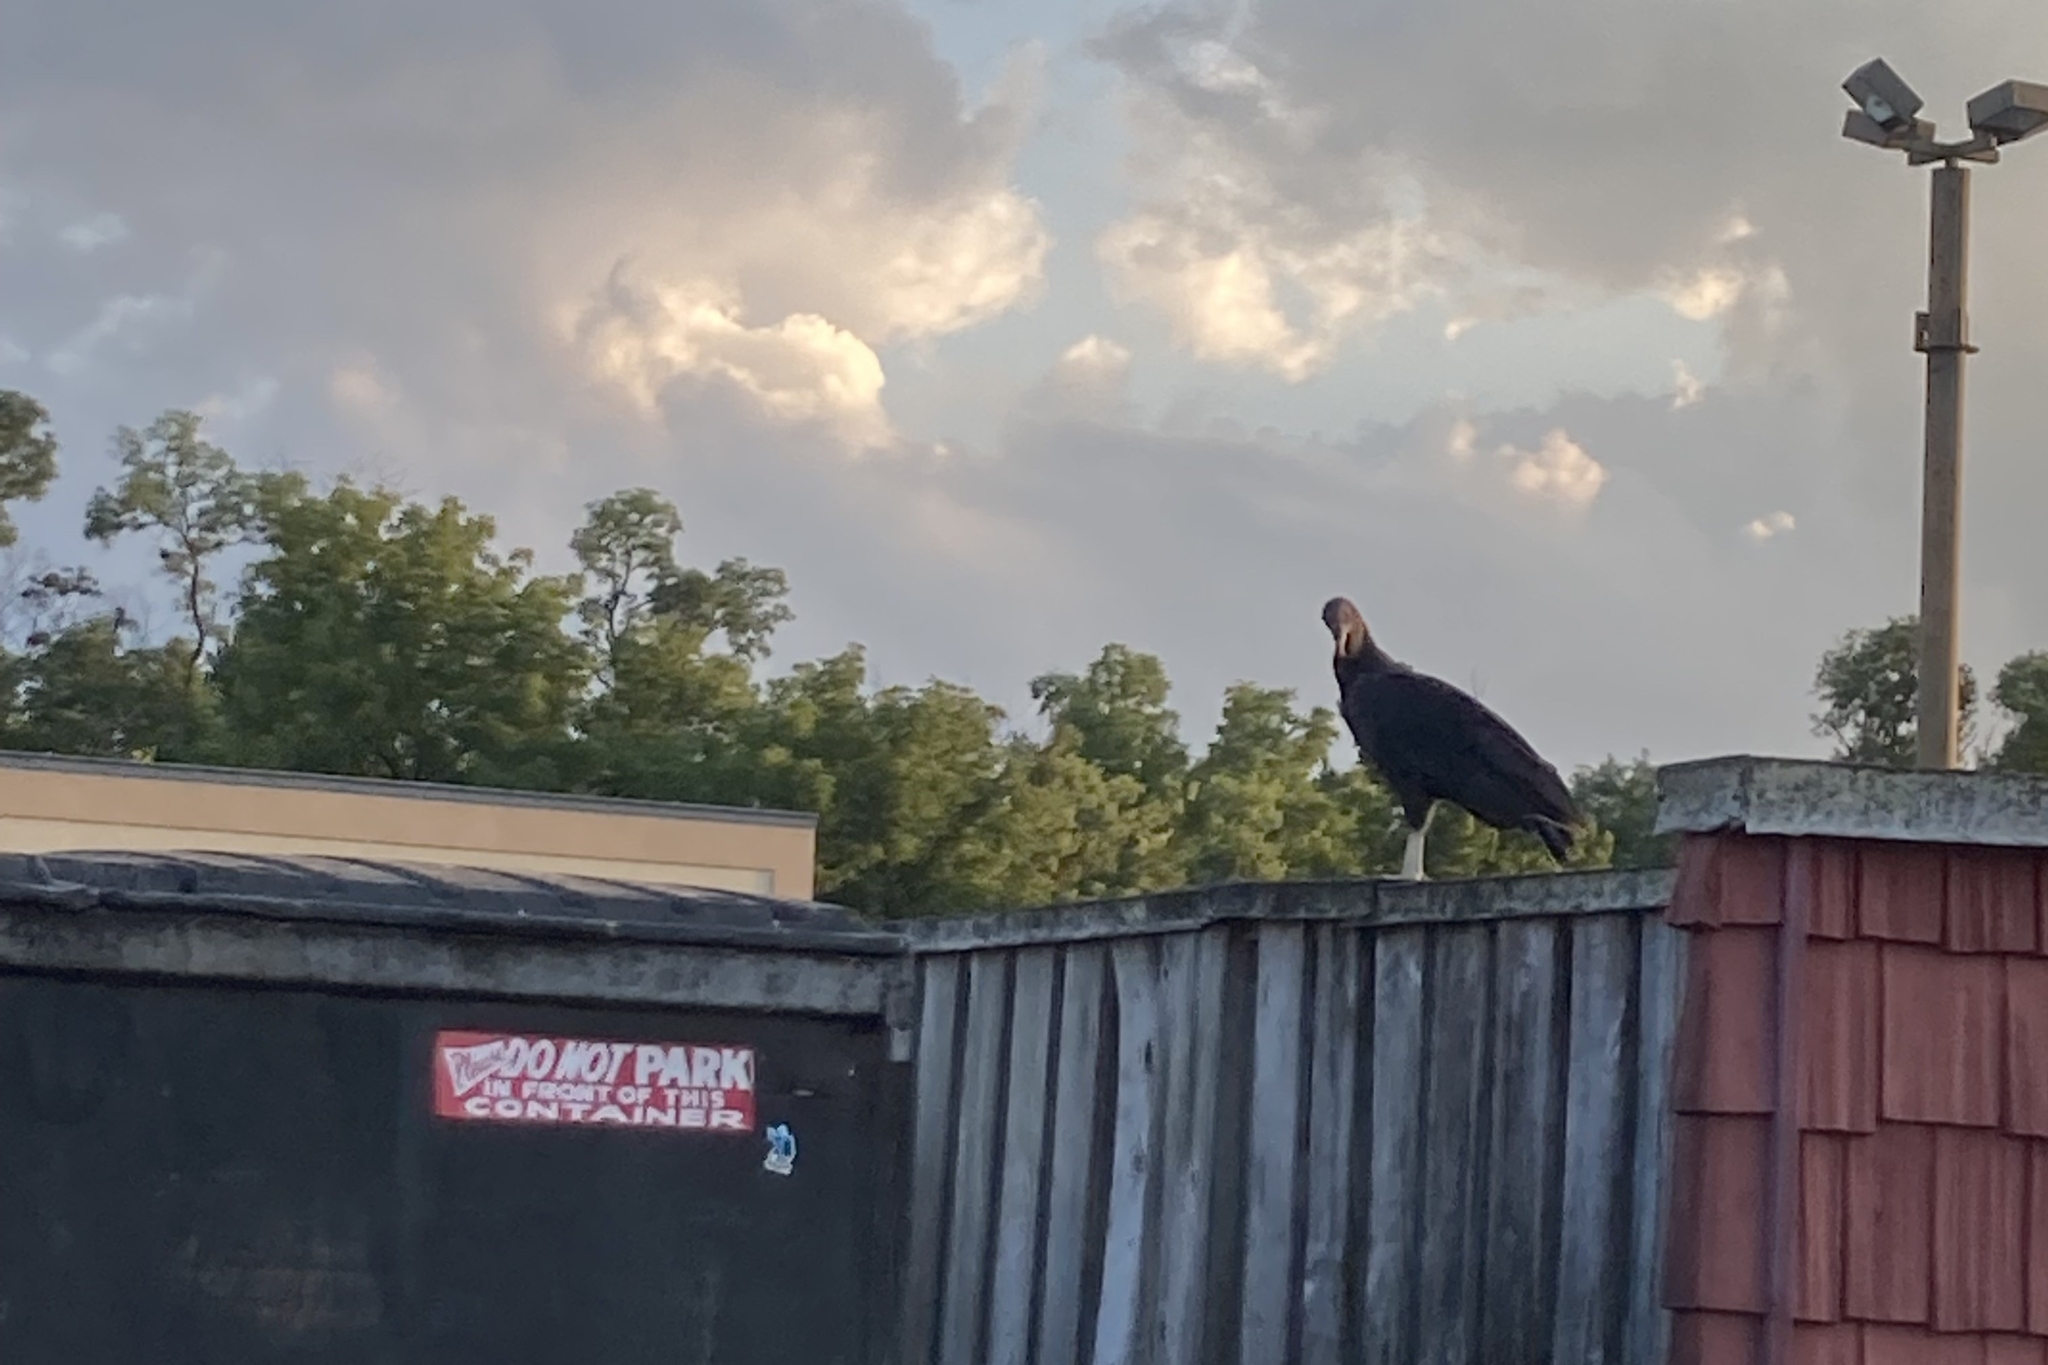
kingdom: Animalia
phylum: Chordata
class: Aves
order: Accipitriformes
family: Cathartidae
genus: Coragyps
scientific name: Coragyps atratus
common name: Black vulture
